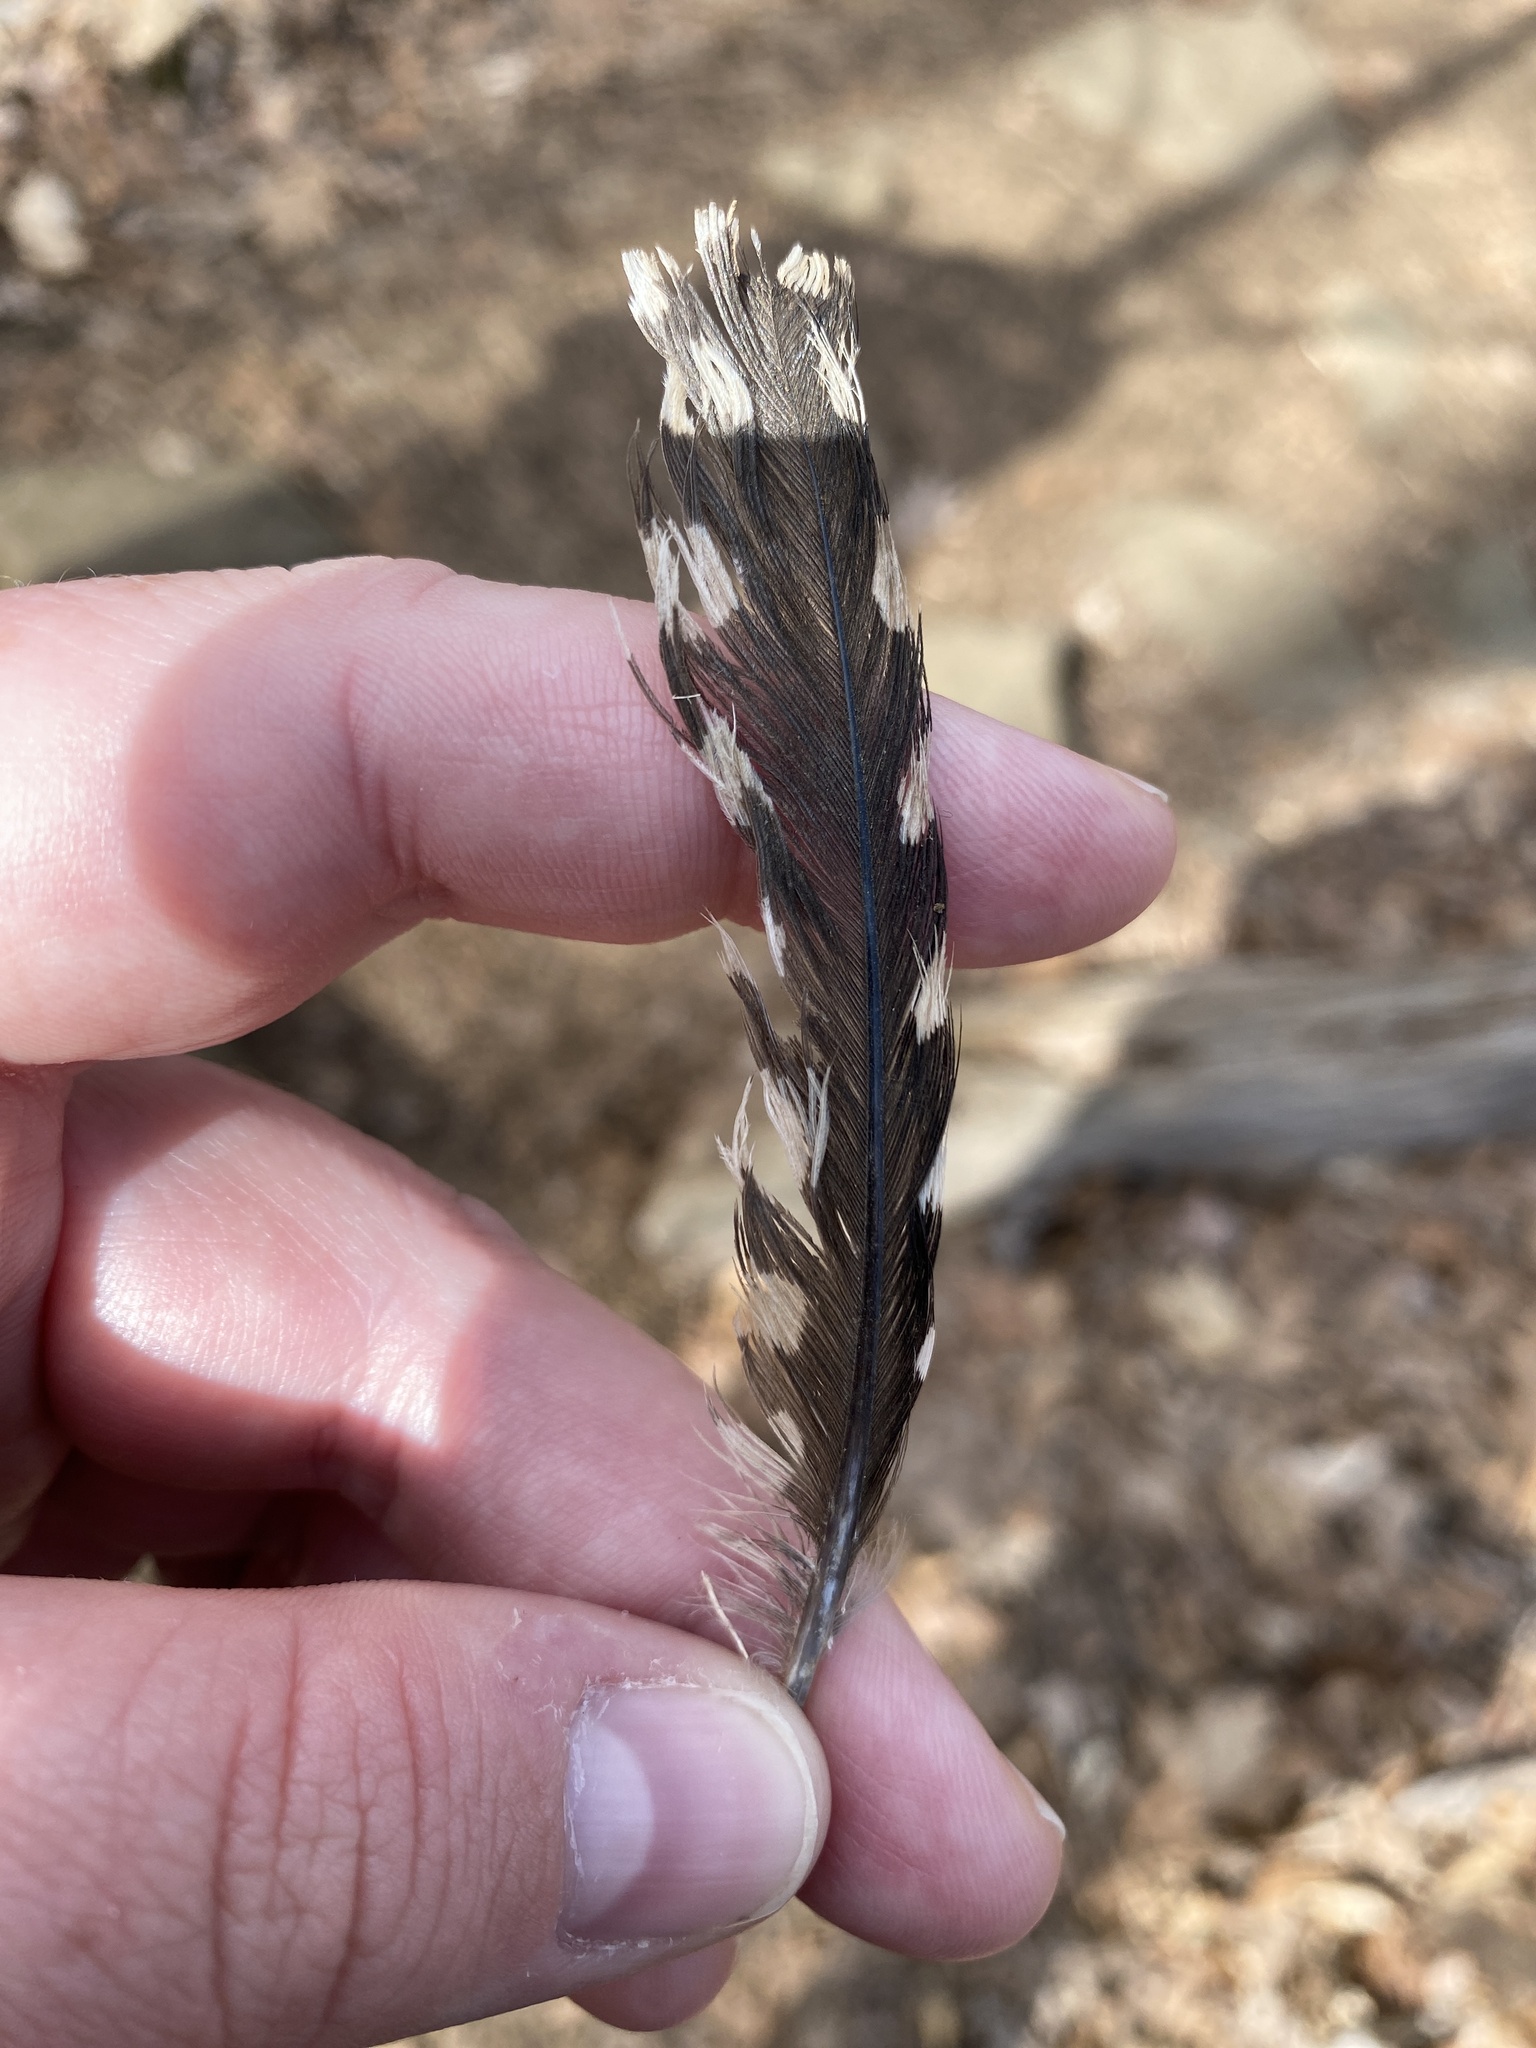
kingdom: Animalia
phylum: Chordata
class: Aves
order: Piciformes
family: Picidae
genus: Melanerpes
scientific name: Melanerpes carolinus
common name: Red-bellied woodpecker
